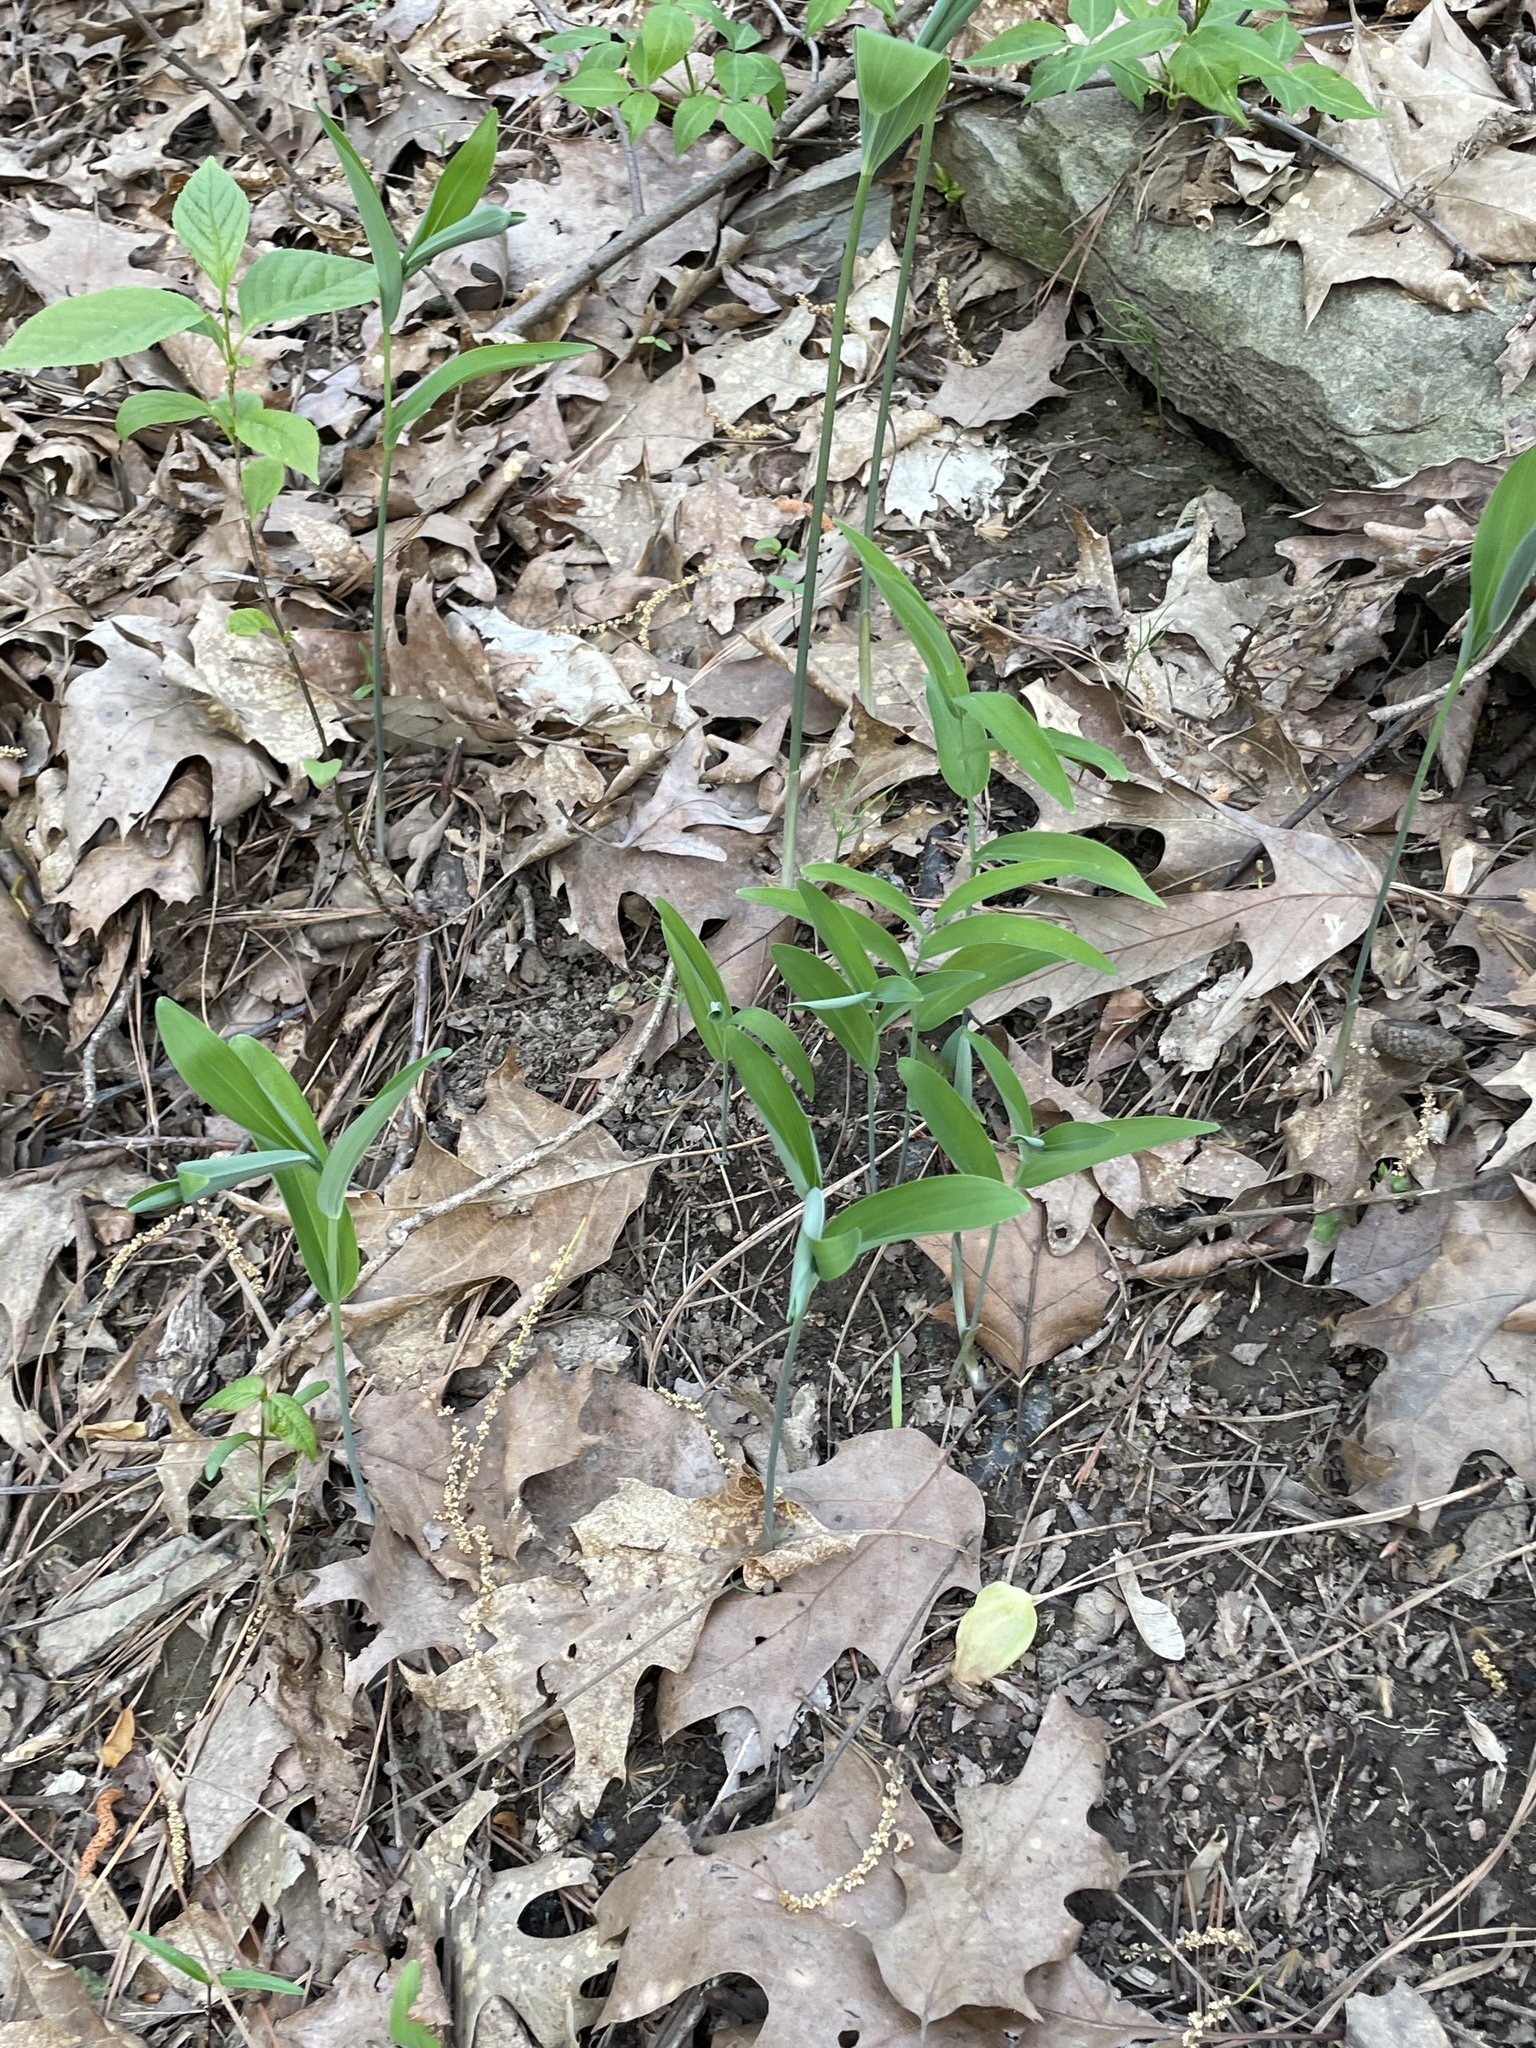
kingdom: Plantae
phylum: Tracheophyta
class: Liliopsida
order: Asparagales
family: Asparagaceae
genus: Polygonatum
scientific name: Polygonatum biflorum
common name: American solomon's-seal
